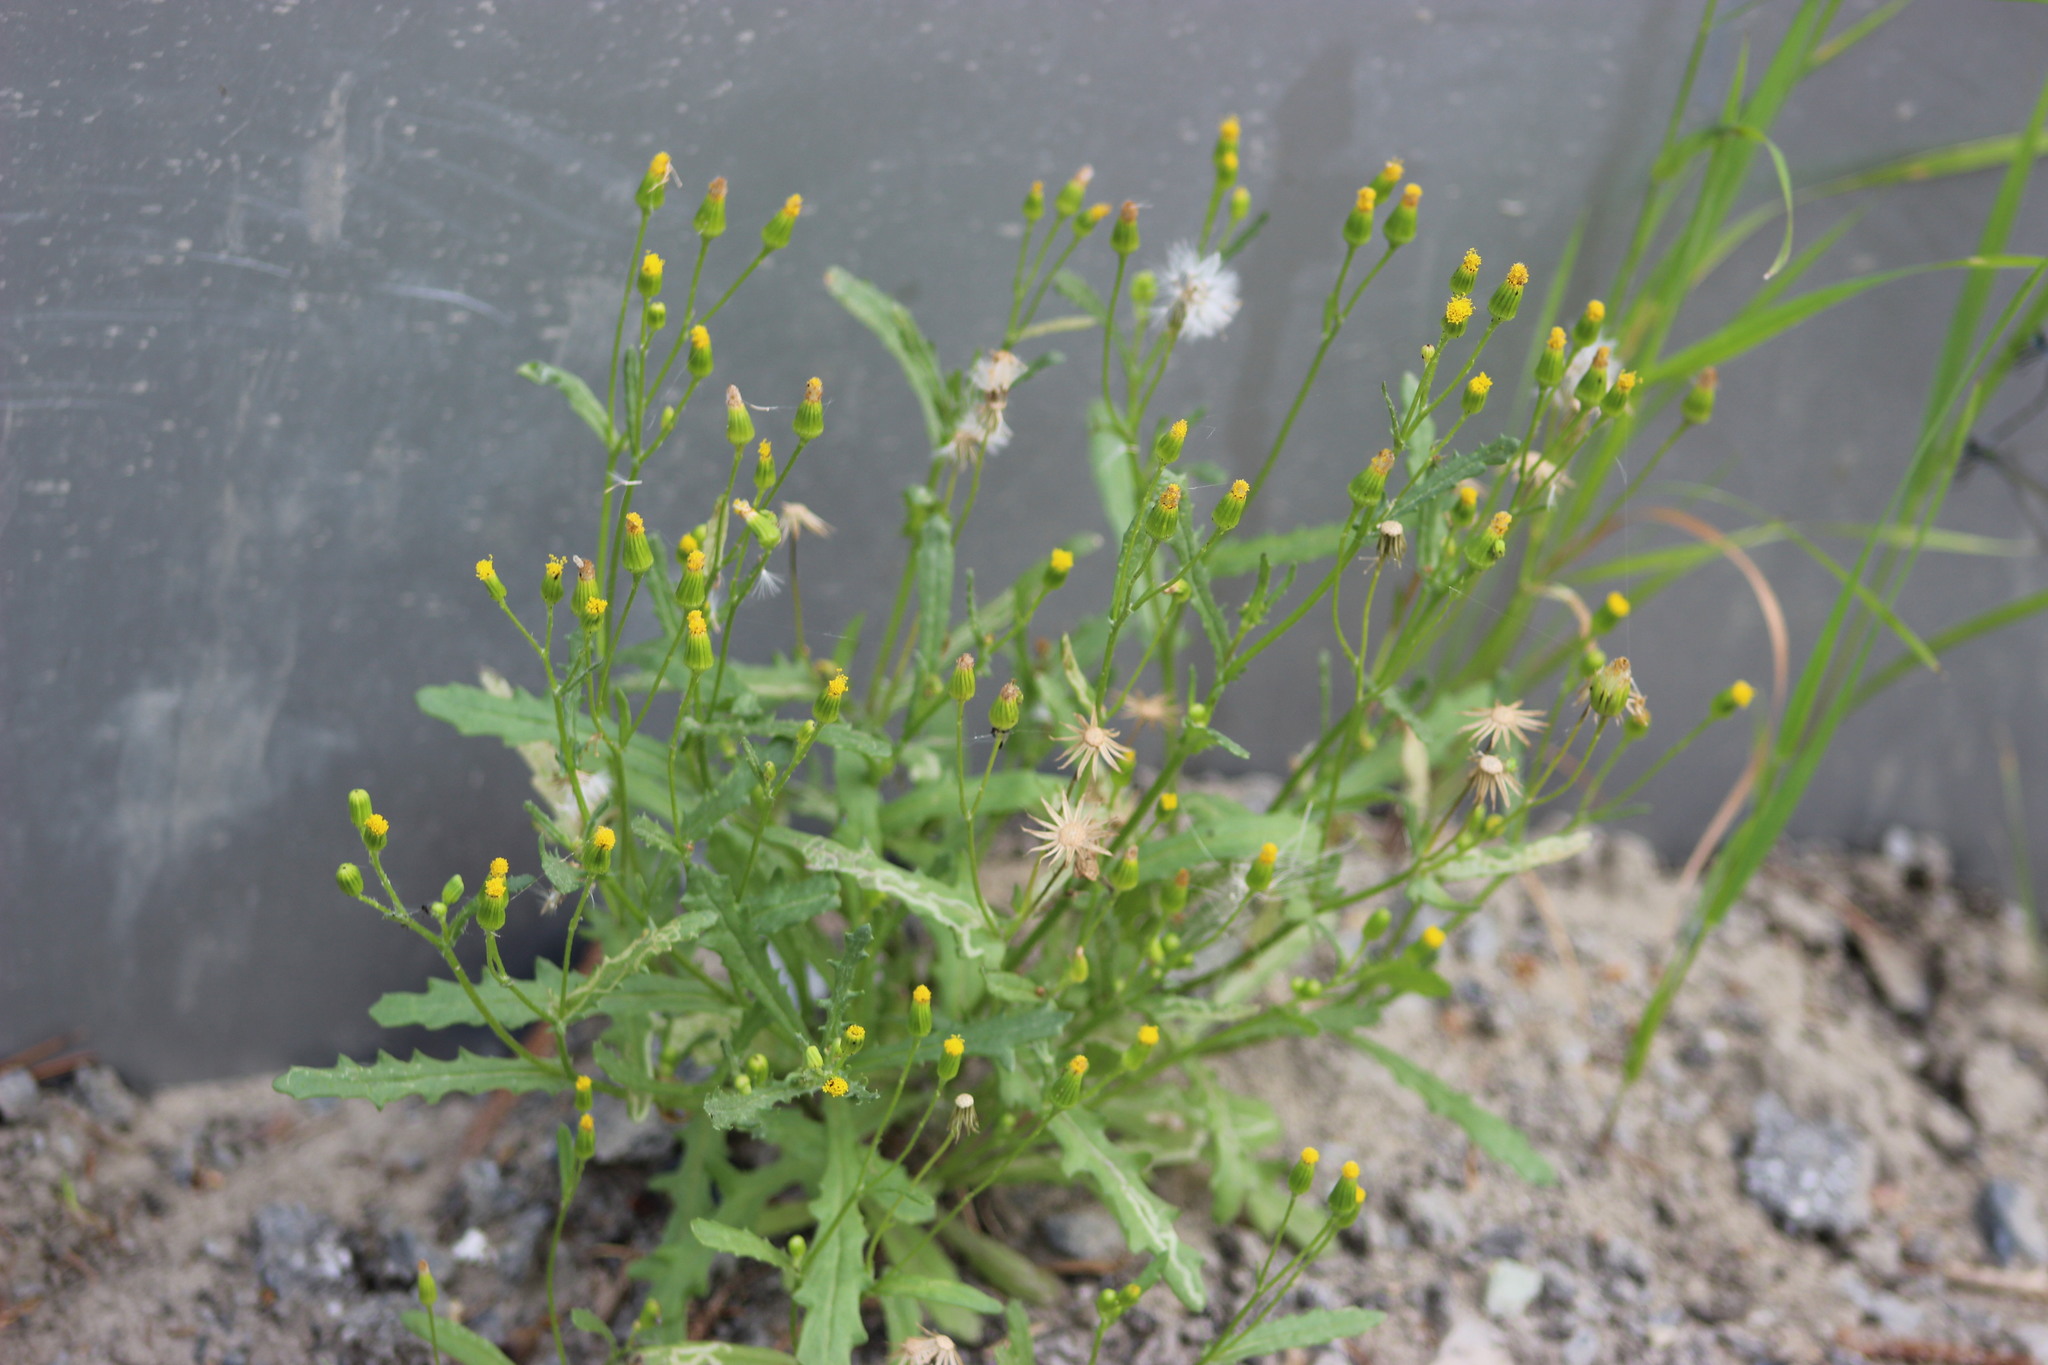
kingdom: Plantae
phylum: Tracheophyta
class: Magnoliopsida
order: Asterales
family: Asteraceae
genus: Senecio
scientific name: Senecio dubitabilis
